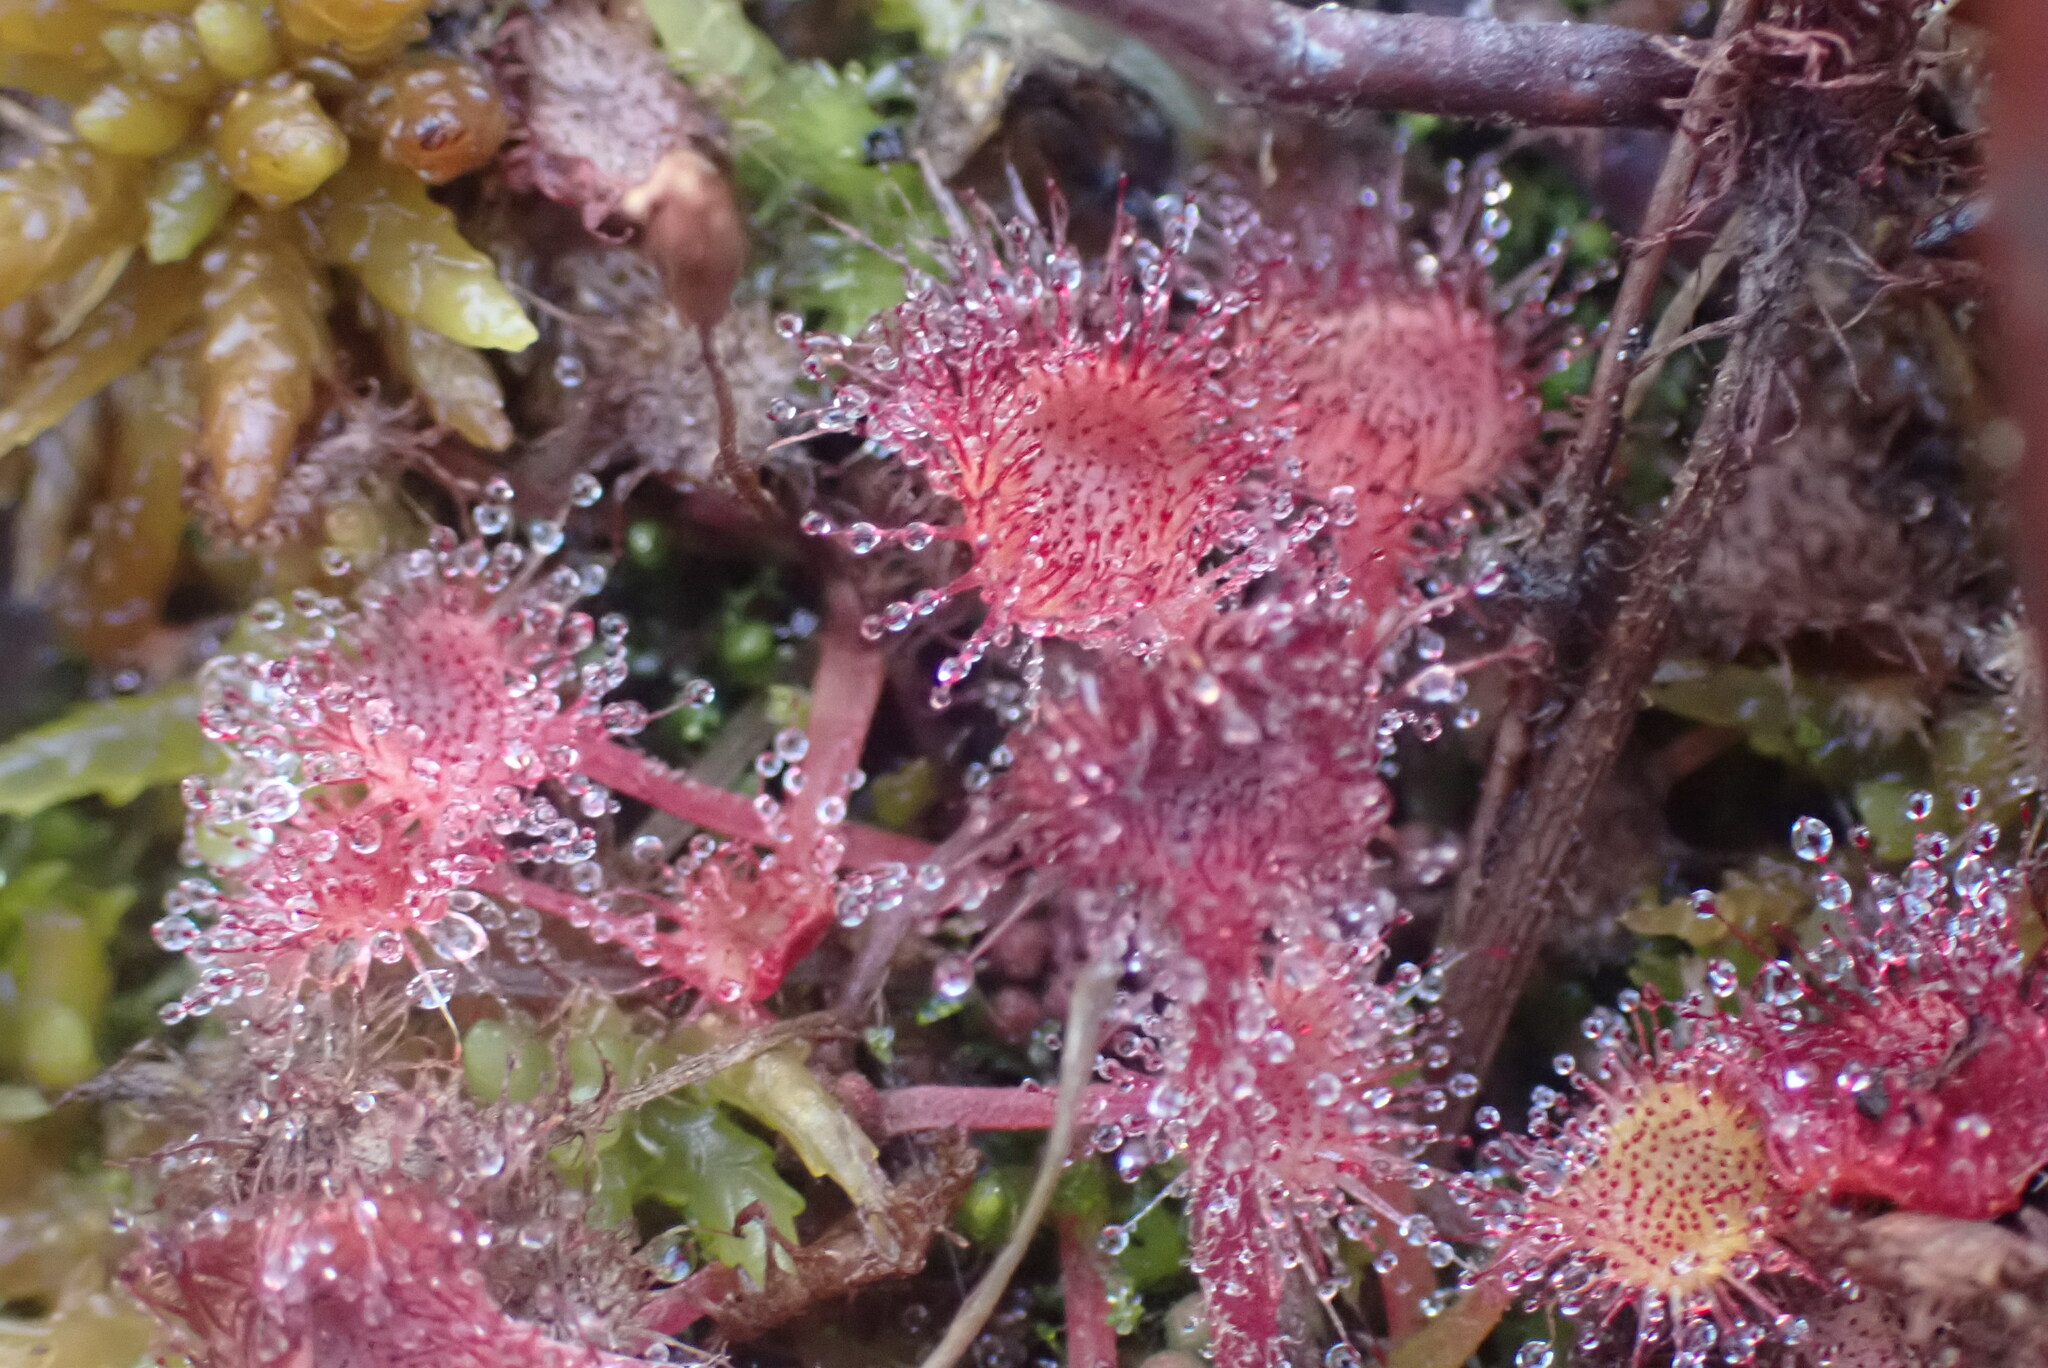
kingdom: Plantae
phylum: Tracheophyta
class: Magnoliopsida
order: Caryophyllales
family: Droseraceae
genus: Drosera
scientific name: Drosera rotundifolia
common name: Round-leaved sundew
